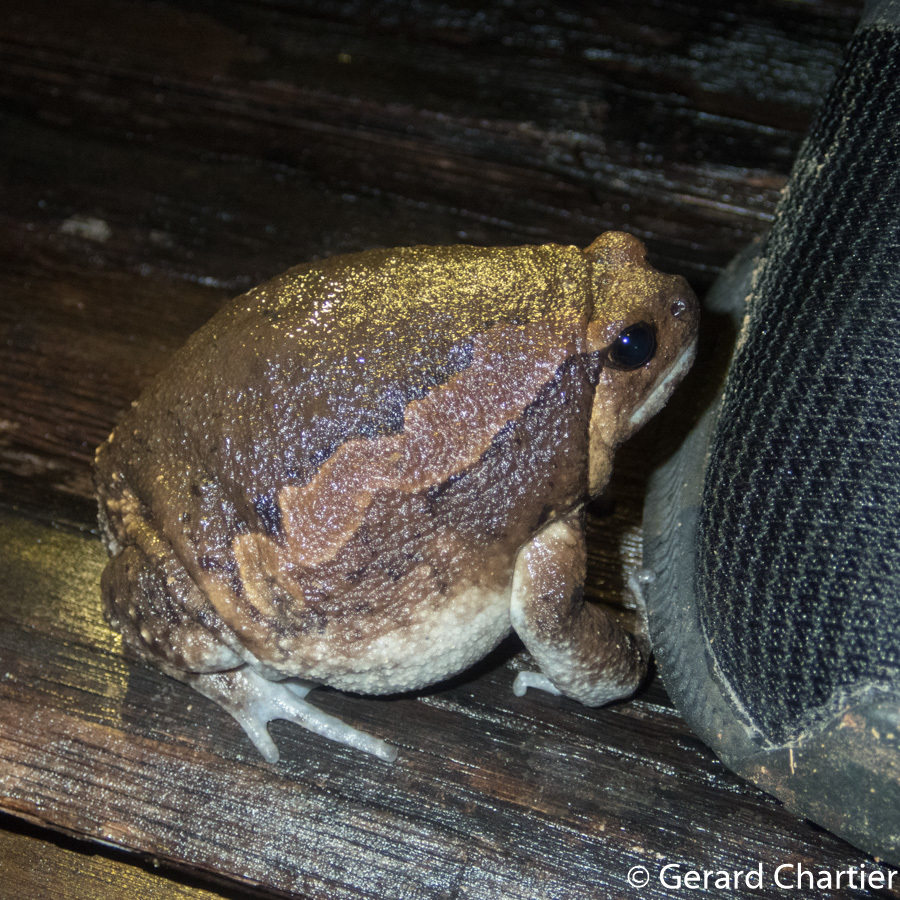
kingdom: Animalia
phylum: Chordata
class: Amphibia
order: Anura
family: Microhylidae
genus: Kaloula
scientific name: Kaloula pulchra
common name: Common,banded bullfrog
